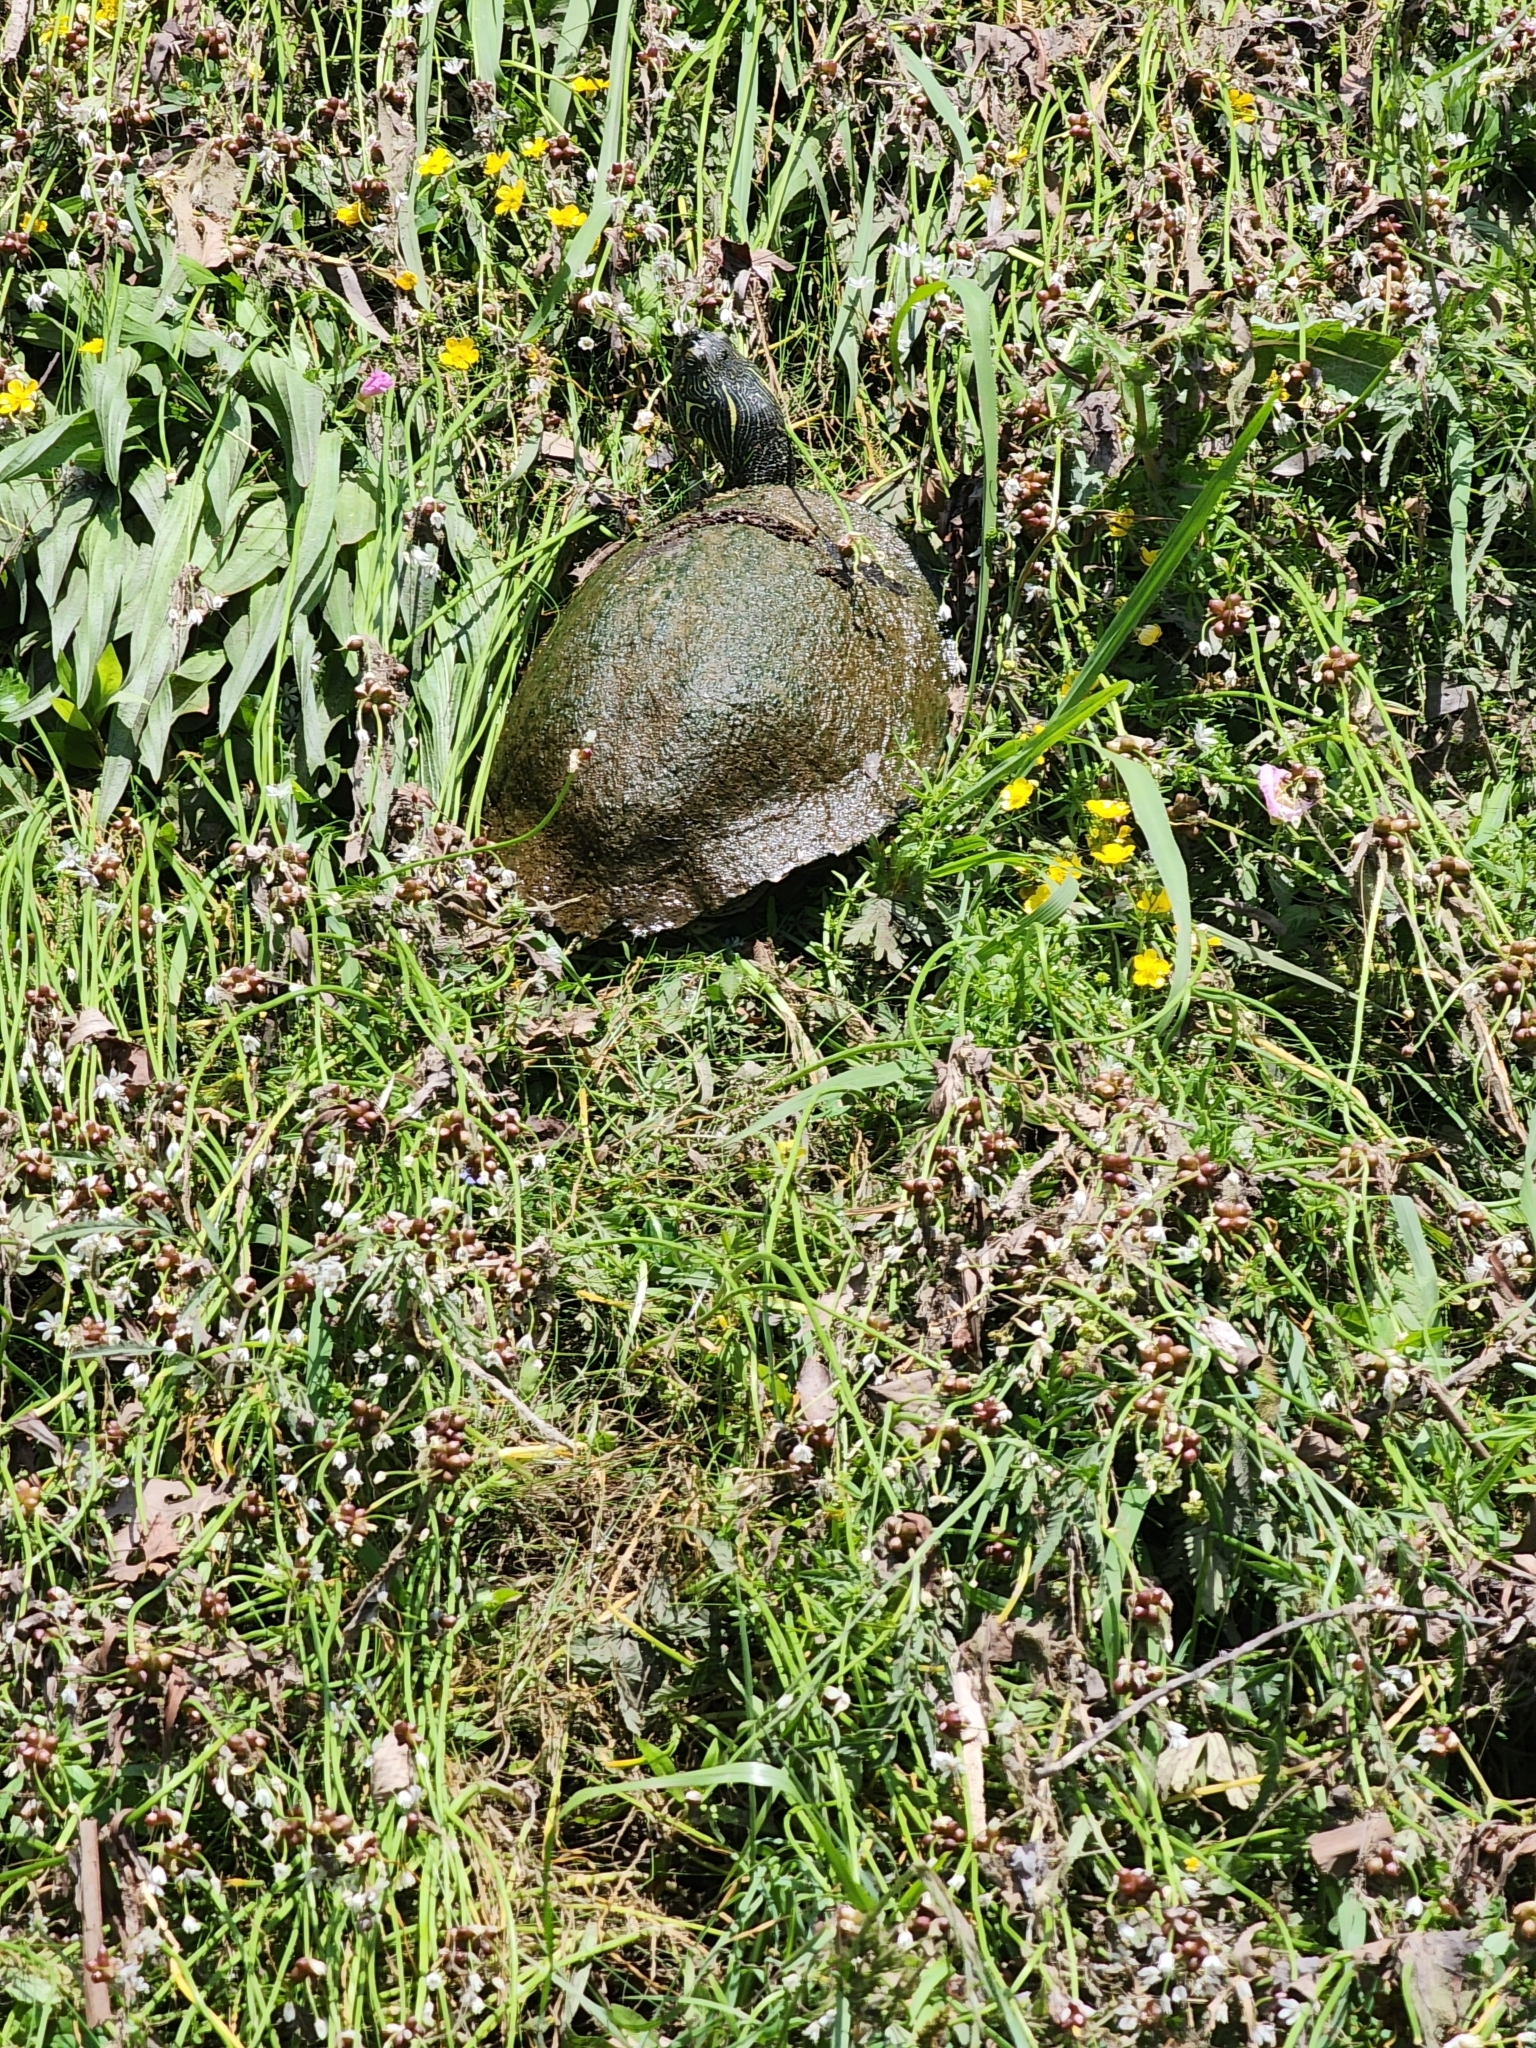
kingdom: Animalia
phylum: Chordata
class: Testudines
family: Emydidae
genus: Pseudemys
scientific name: Pseudemys texana
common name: Texas river cooter
